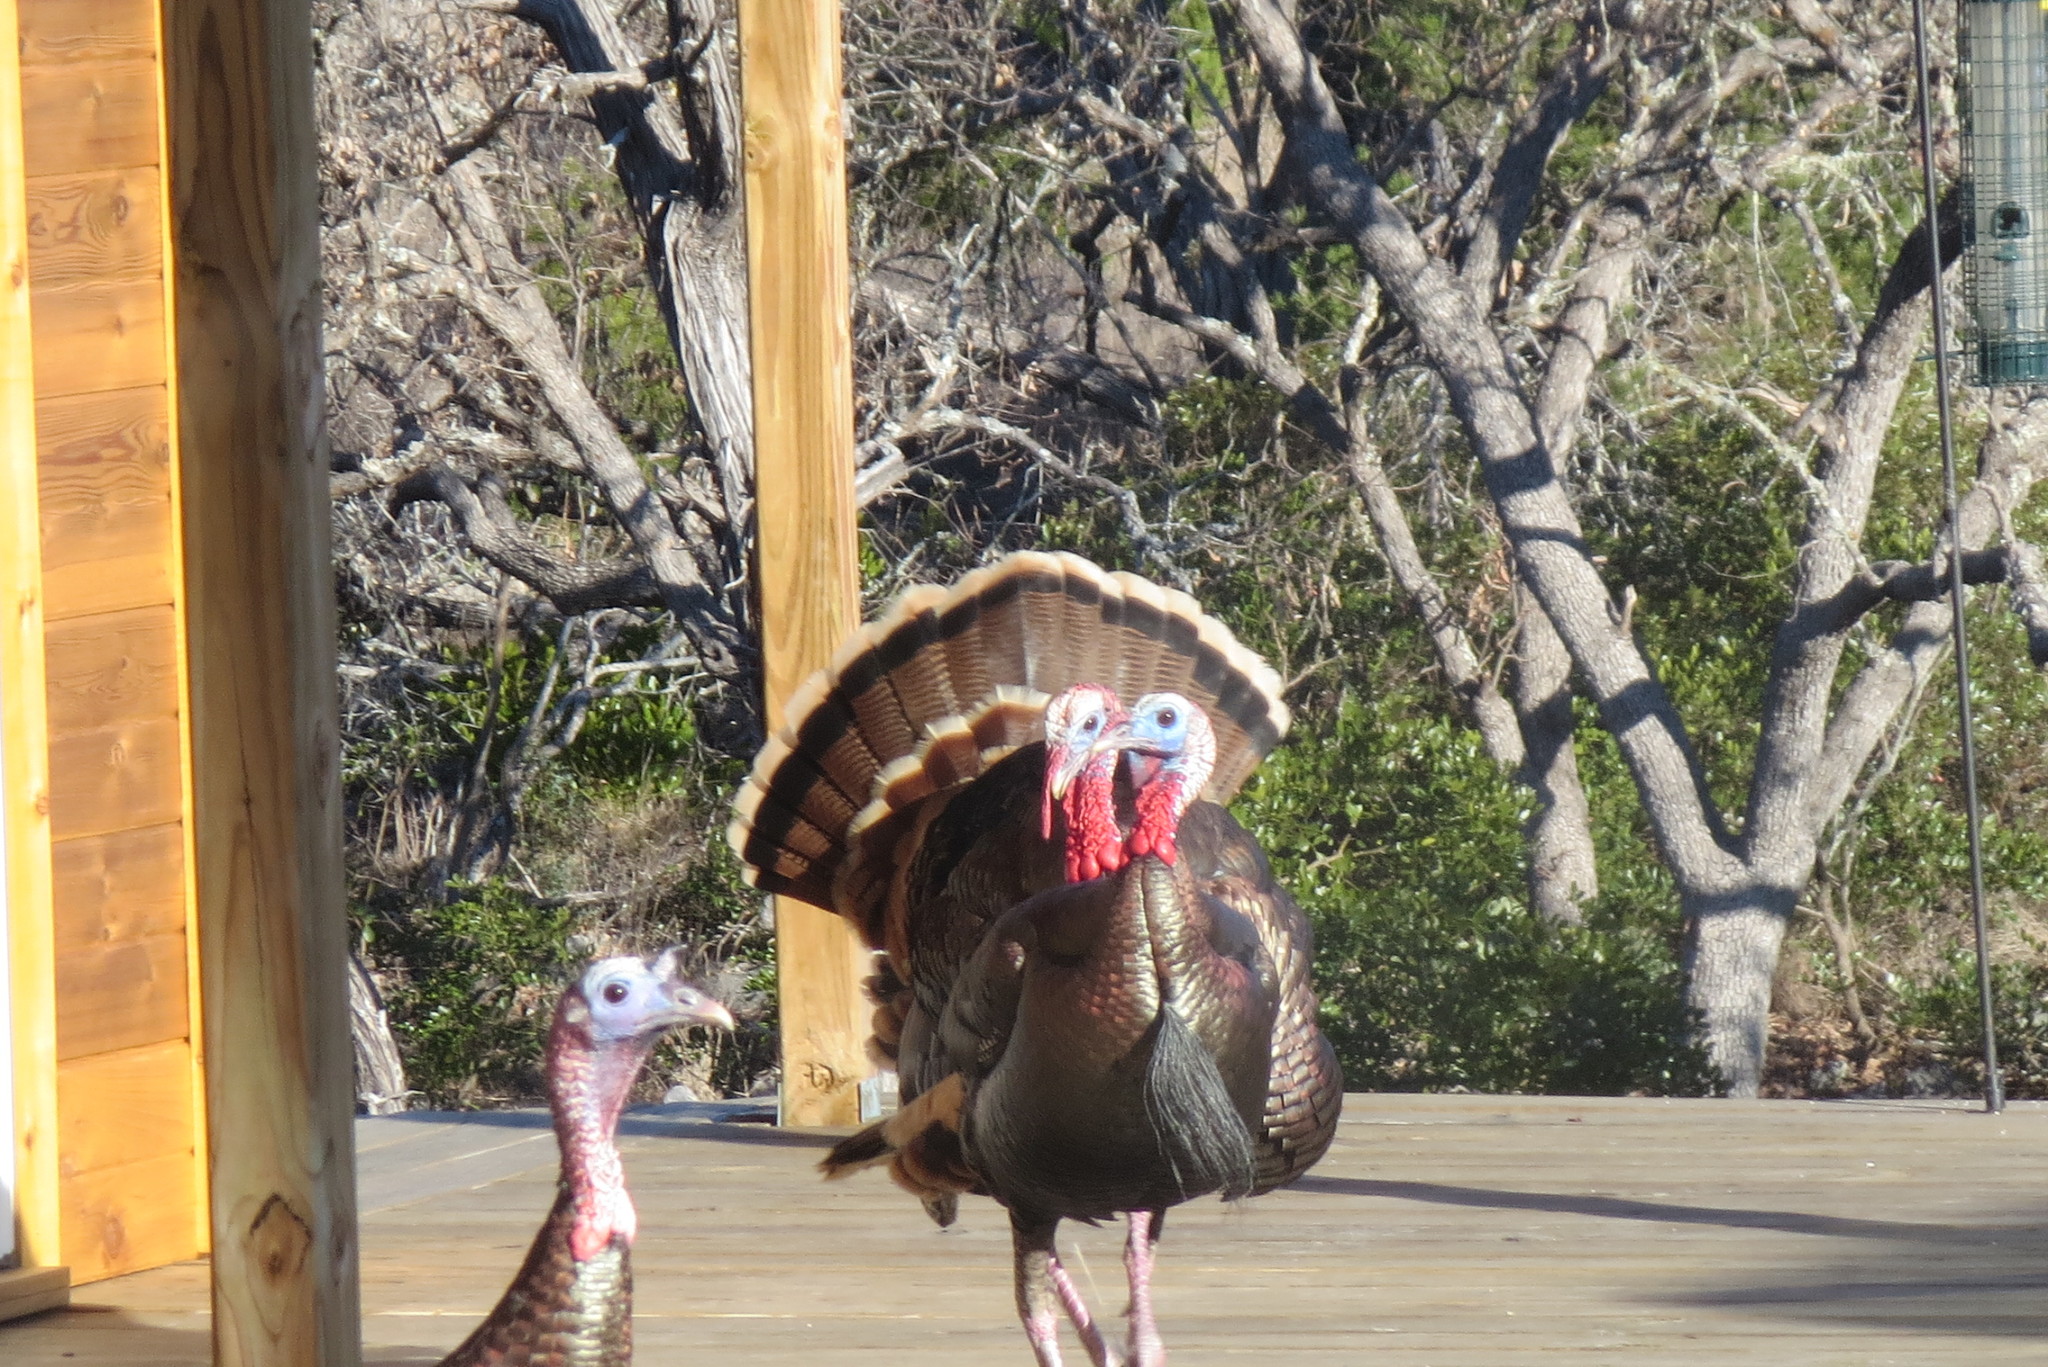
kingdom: Animalia
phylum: Chordata
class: Aves
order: Galliformes
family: Phasianidae
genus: Meleagris
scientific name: Meleagris gallopavo
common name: Wild turkey
